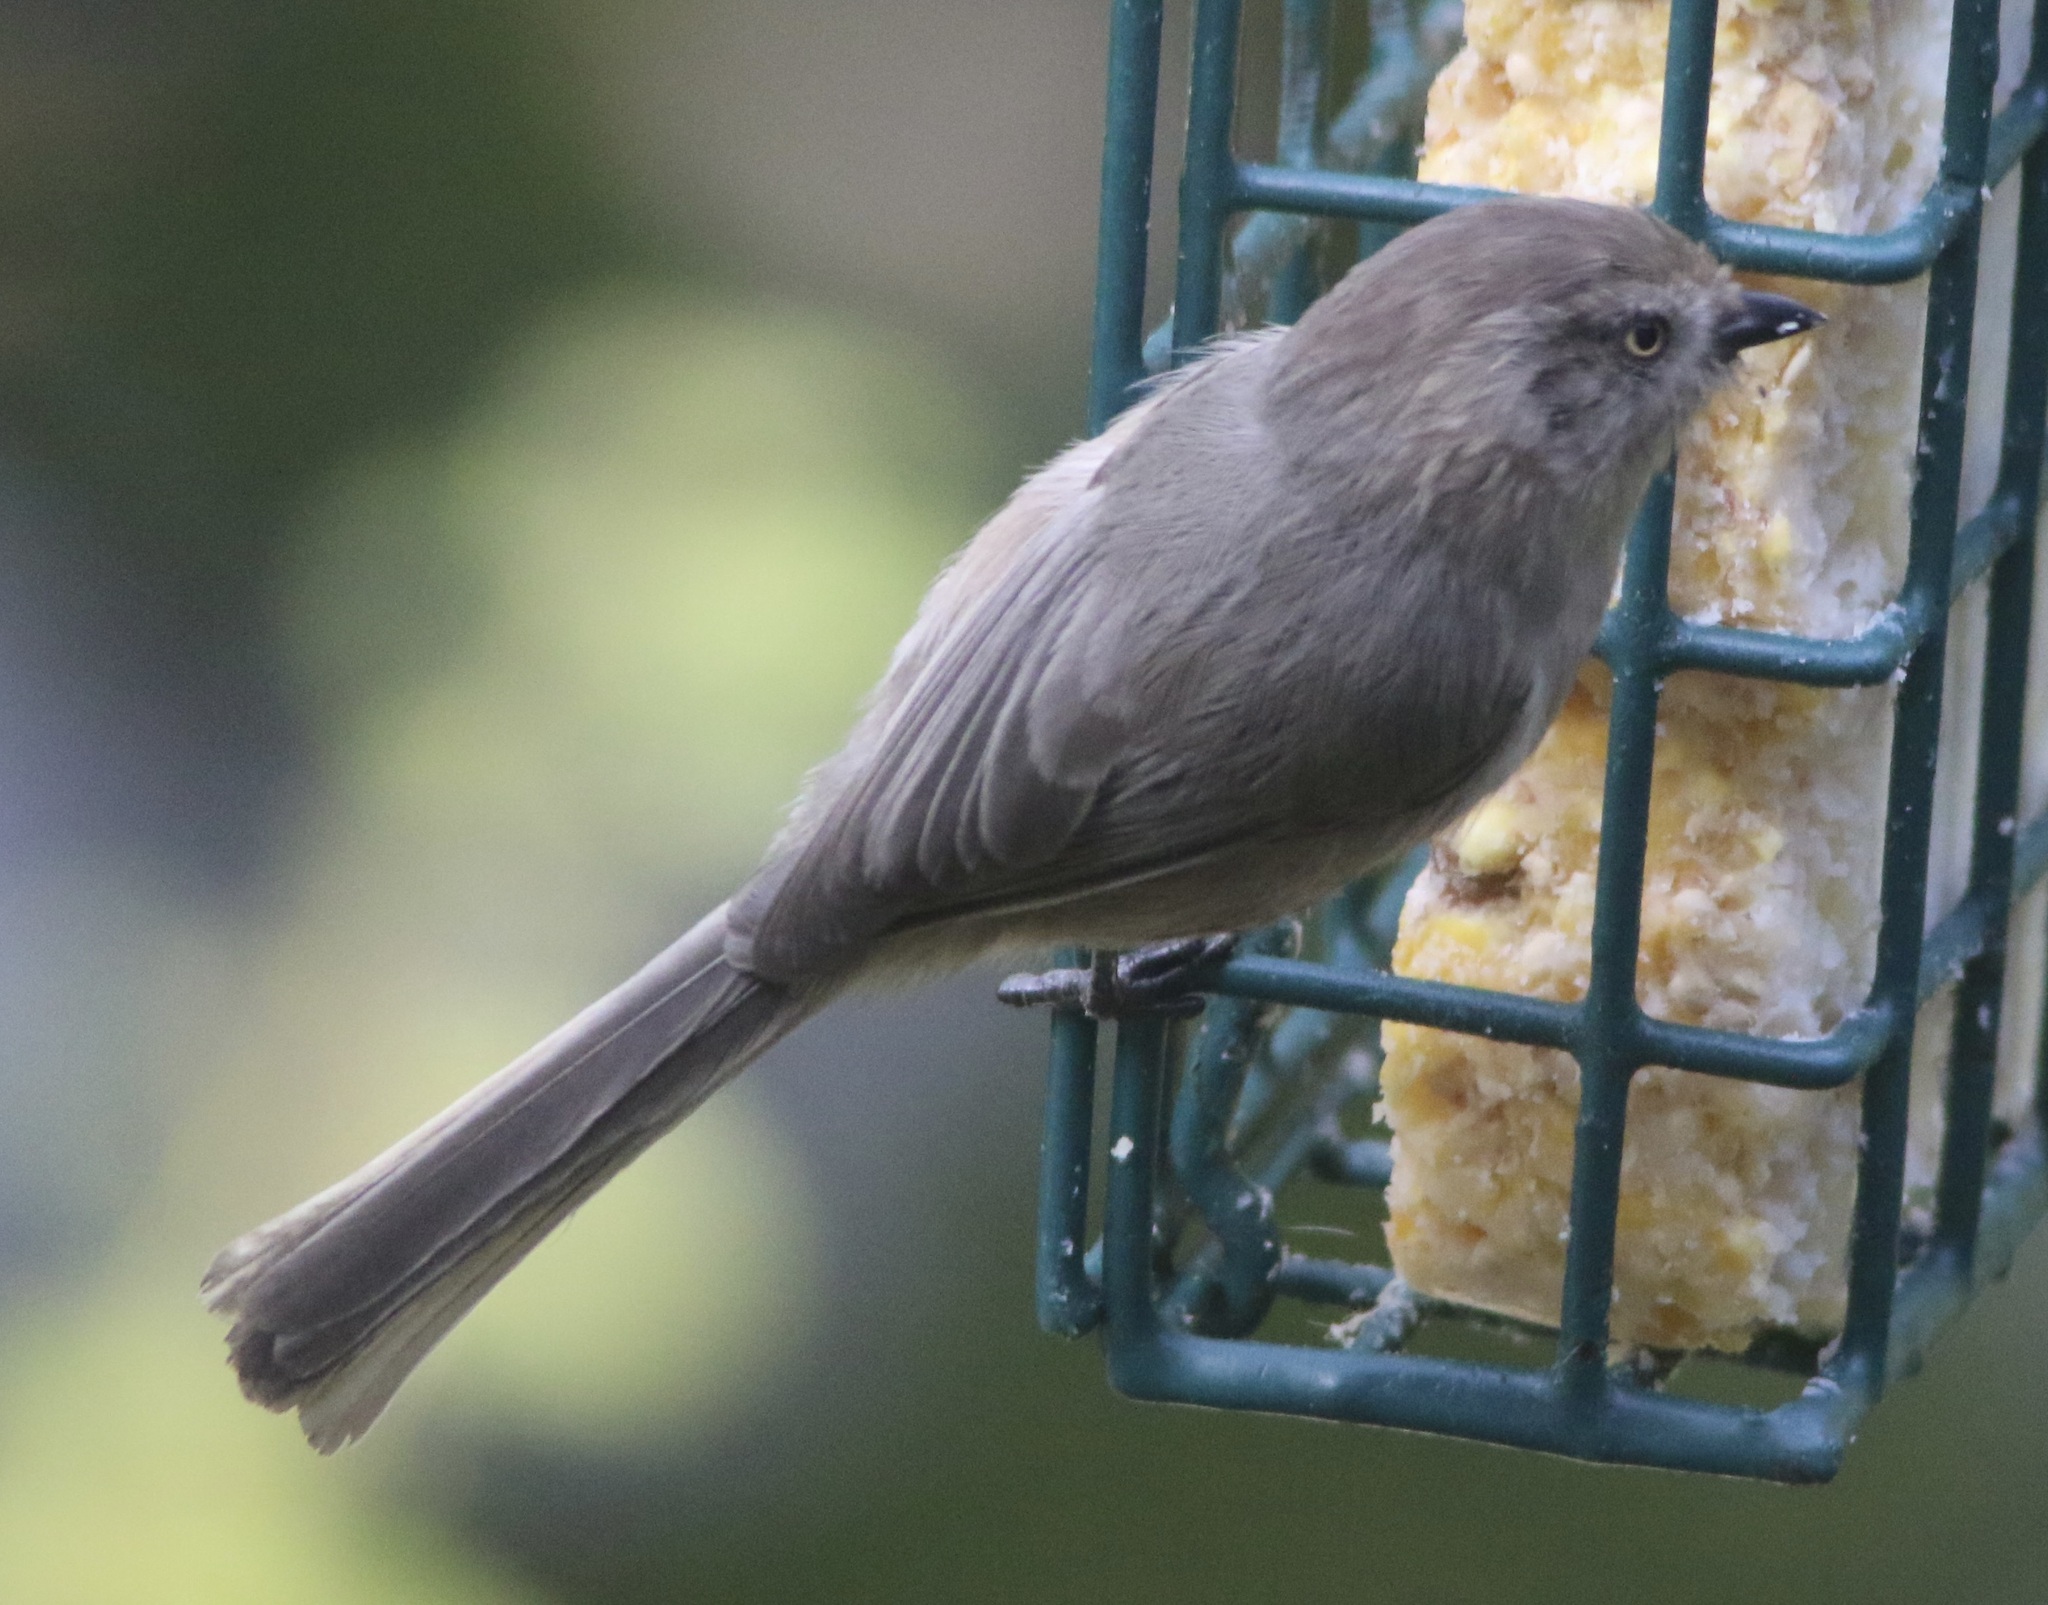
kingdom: Animalia
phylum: Chordata
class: Aves
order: Passeriformes
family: Aegithalidae
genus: Psaltriparus
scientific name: Psaltriparus minimus
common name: American bushtit
